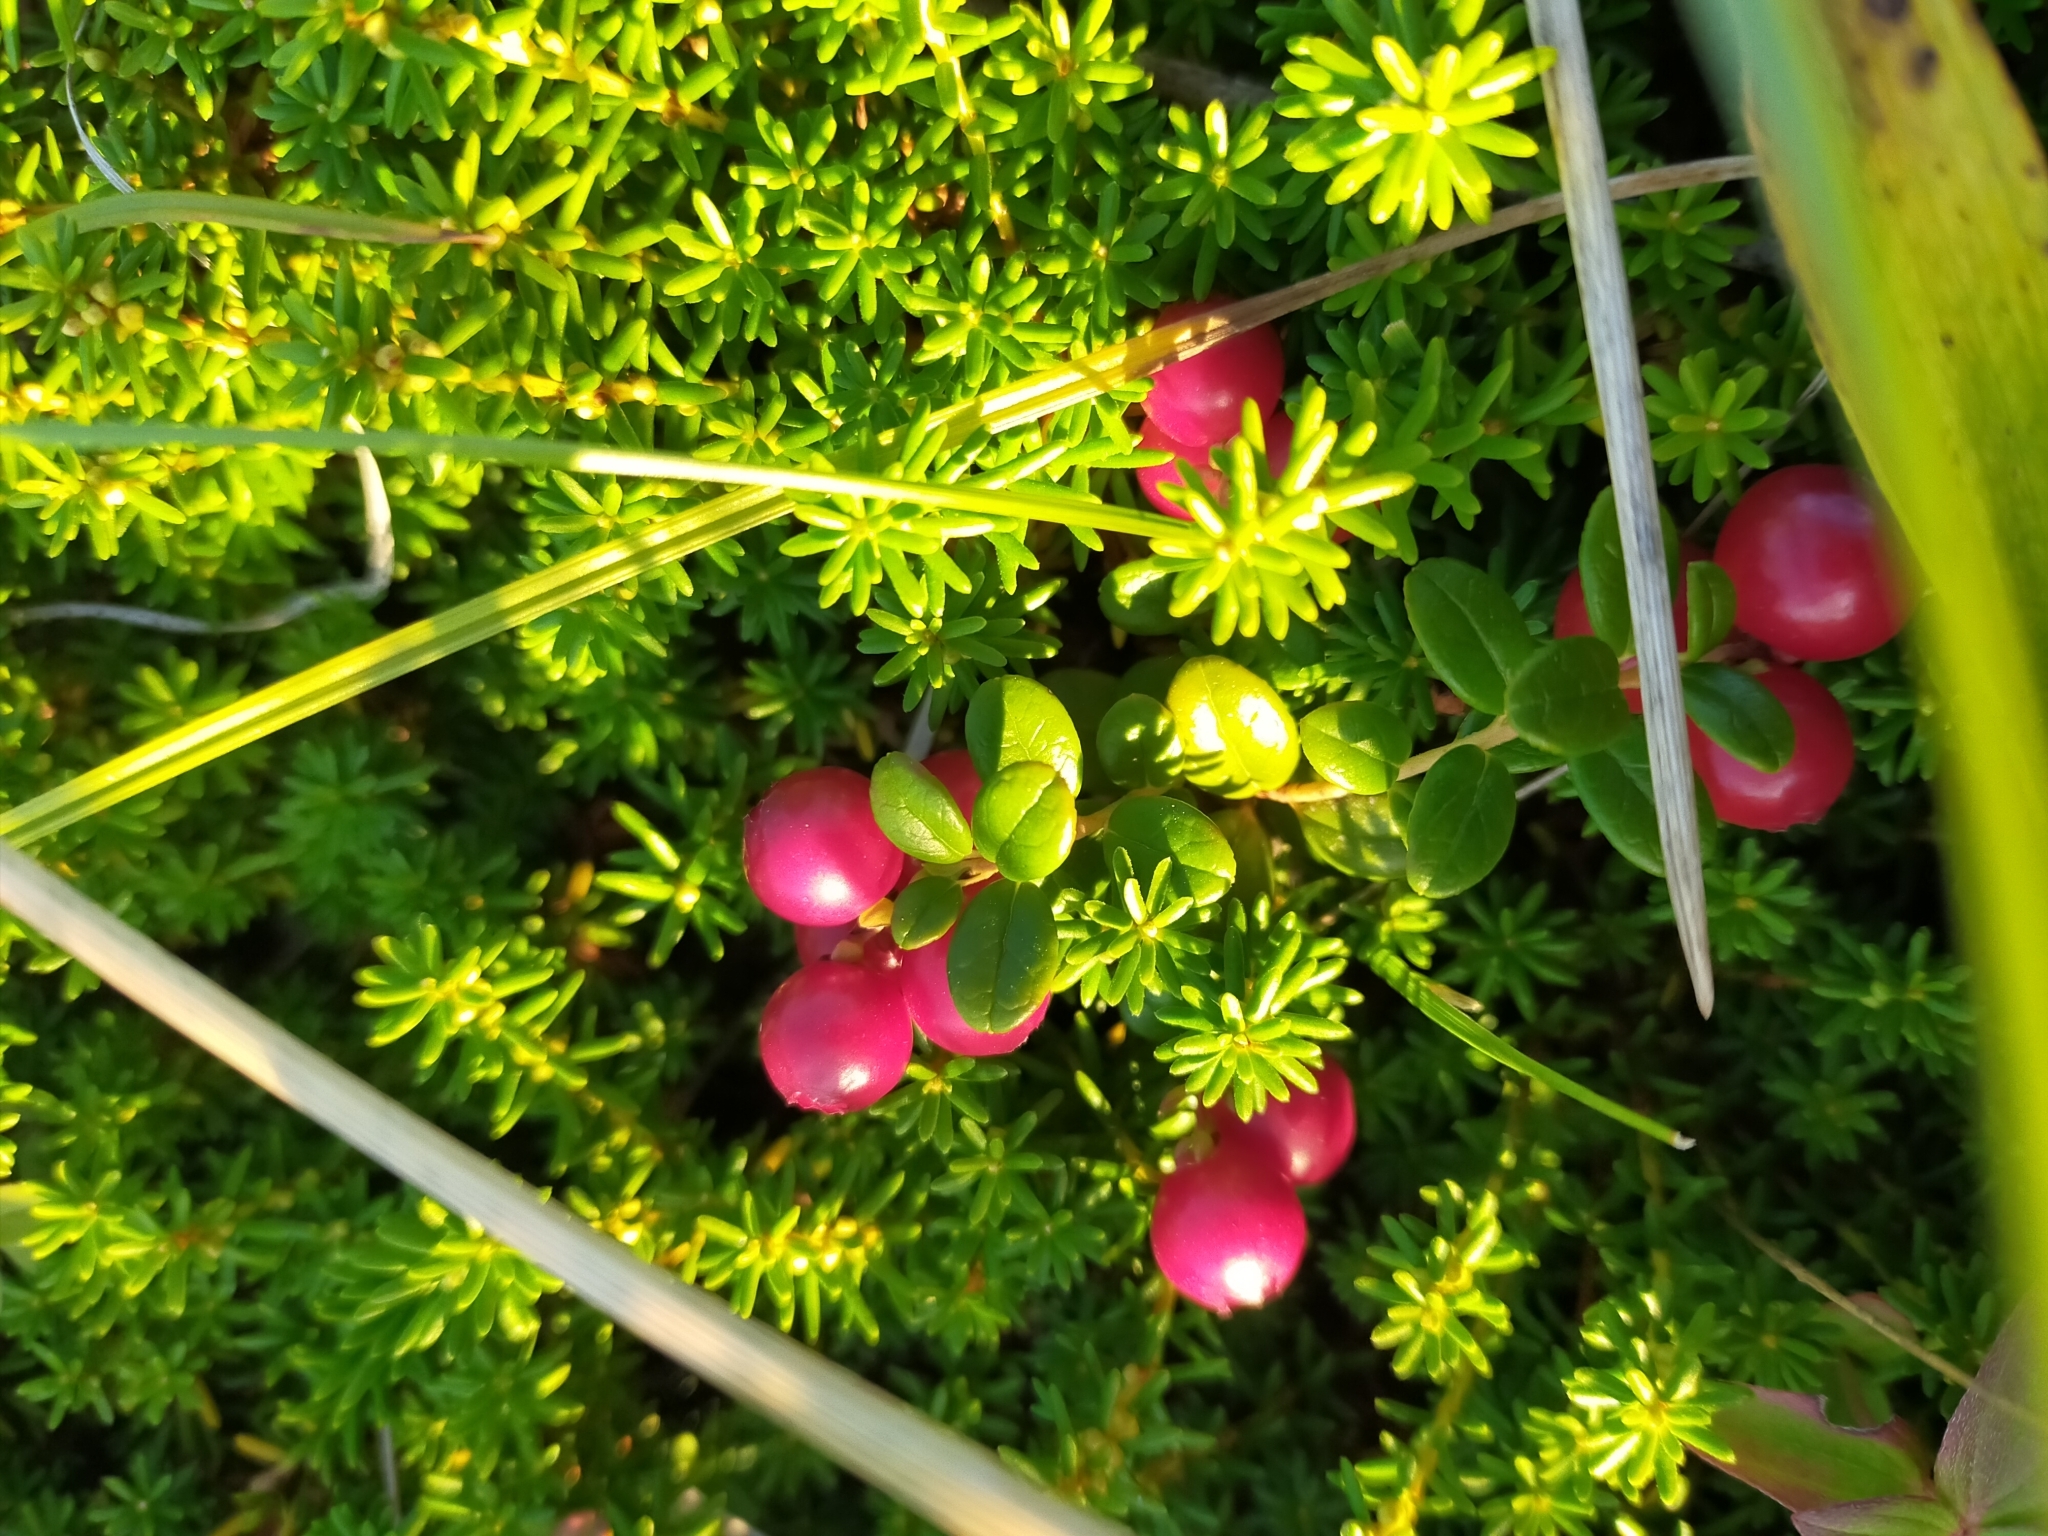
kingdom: Plantae
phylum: Tracheophyta
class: Magnoliopsida
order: Ericales
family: Ericaceae
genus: Vaccinium
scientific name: Vaccinium vitis-idaea
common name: Cowberry
